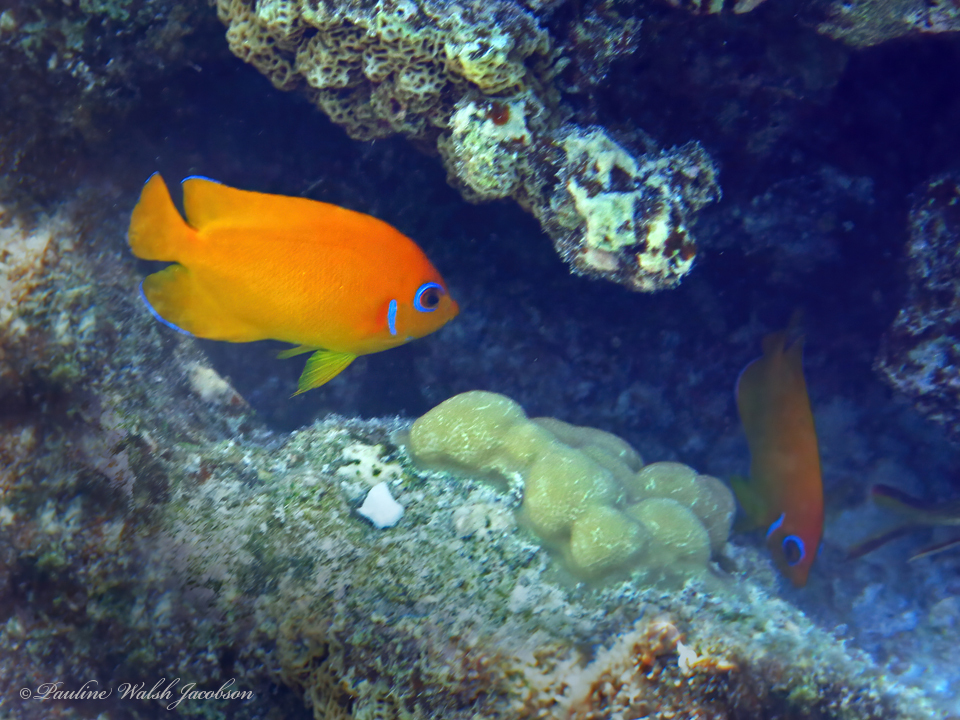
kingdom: Animalia
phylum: Chordata
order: Perciformes
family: Pomacanthidae
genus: Centropyge
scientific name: Centropyge flavissima
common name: Lemonpeel angelfish
